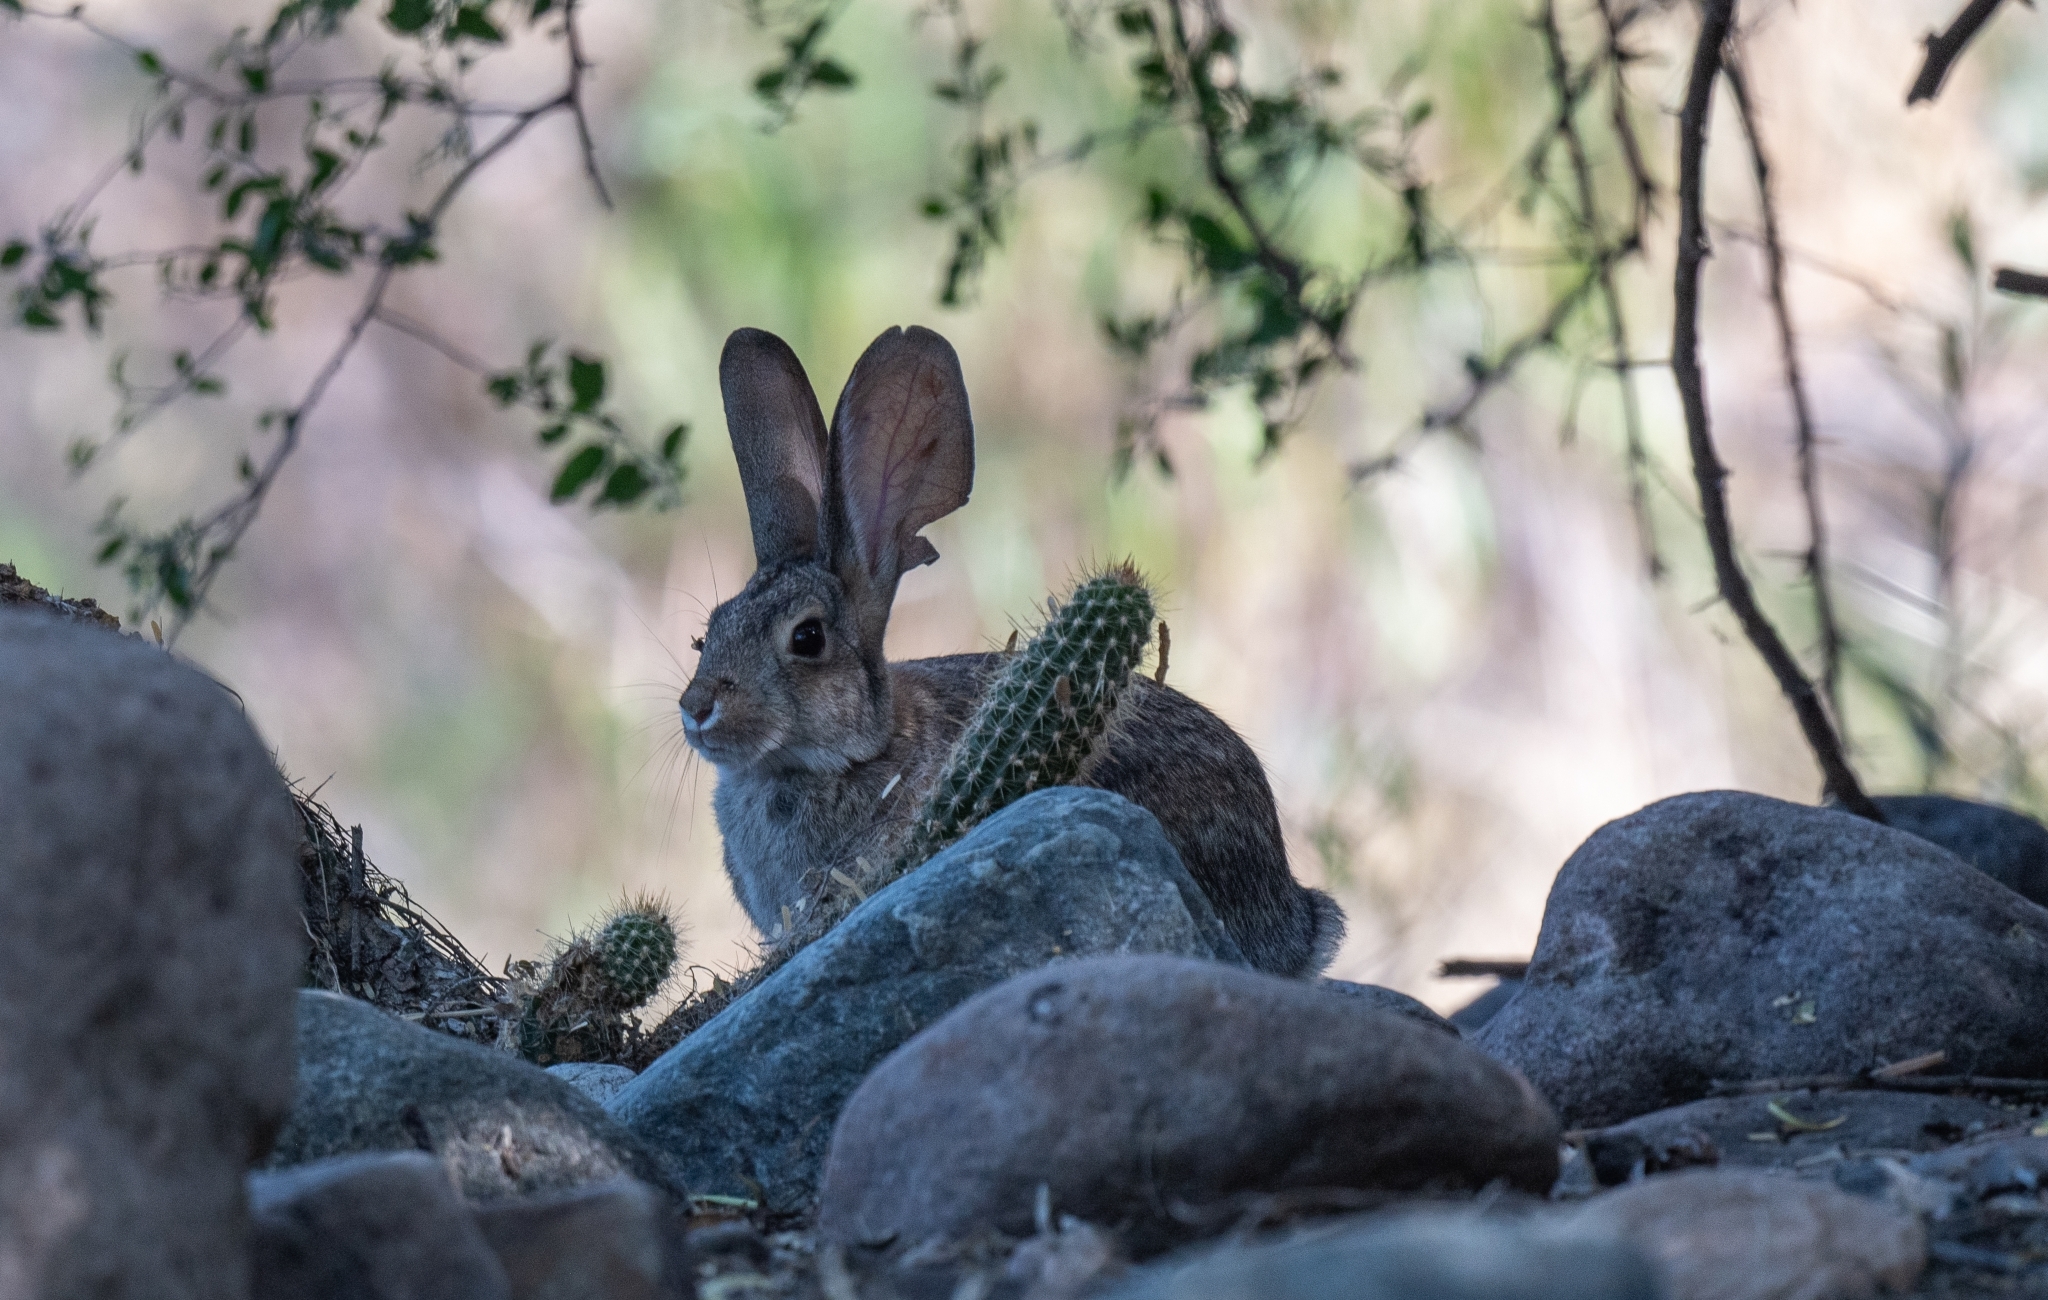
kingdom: Animalia
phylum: Chordata
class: Mammalia
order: Lagomorpha
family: Leporidae
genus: Sylvilagus
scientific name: Sylvilagus audubonii
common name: Desert cottontail
